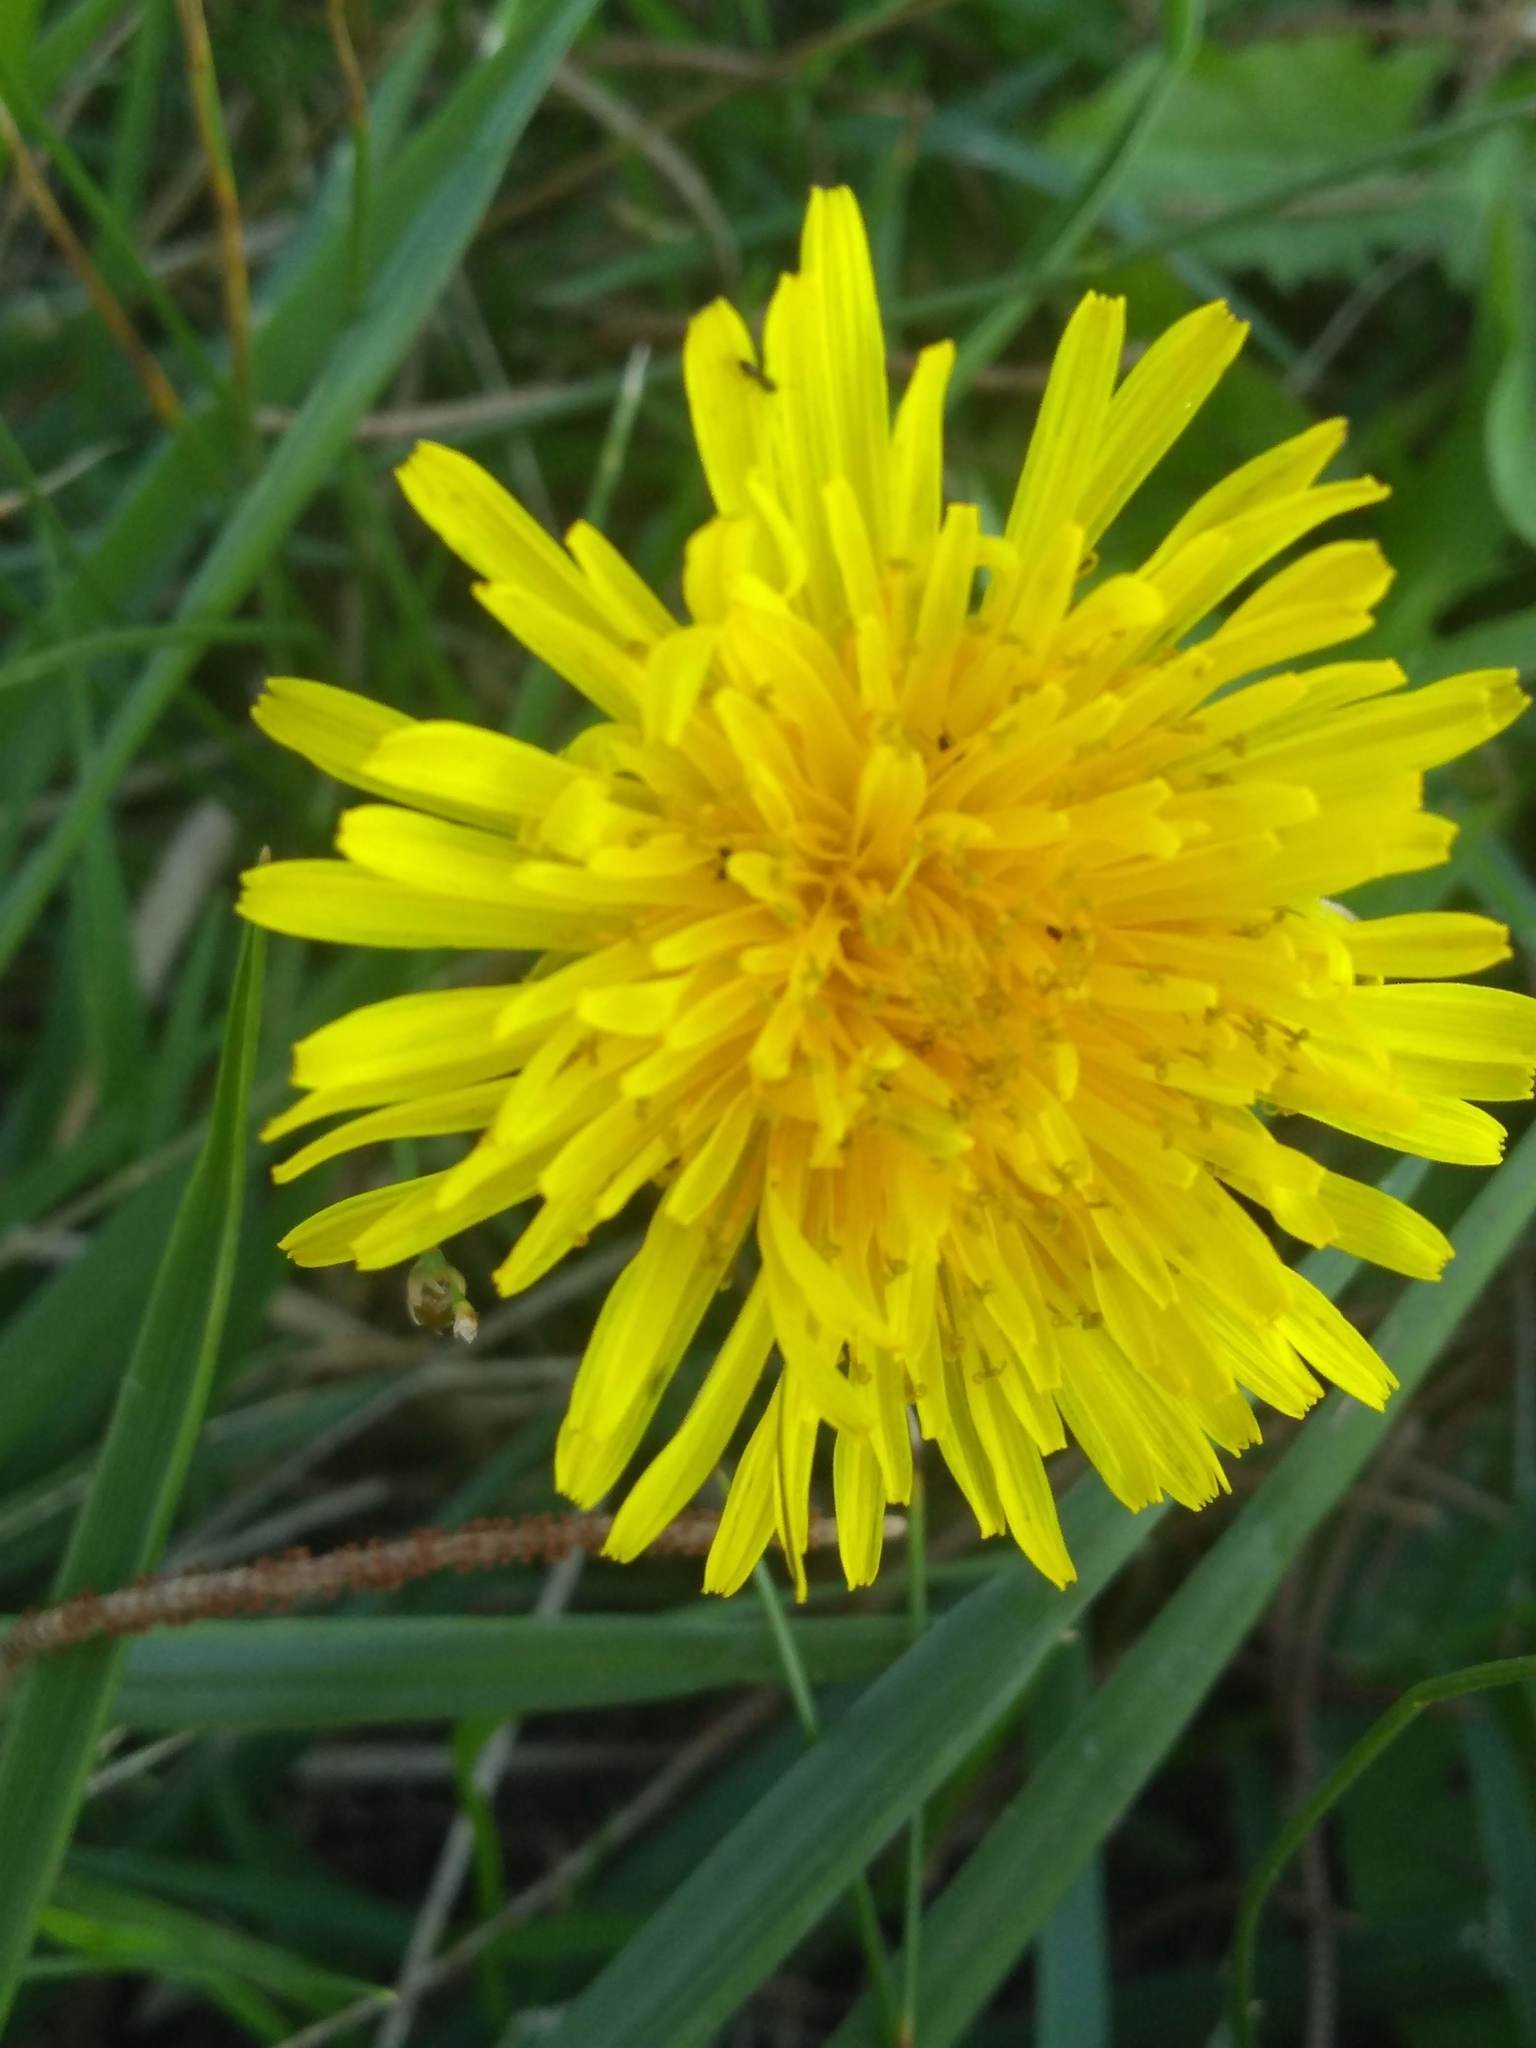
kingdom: Plantae
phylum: Tracheophyta
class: Magnoliopsida
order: Asterales
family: Asteraceae
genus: Taraxacum
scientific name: Taraxacum officinale
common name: Common dandelion
